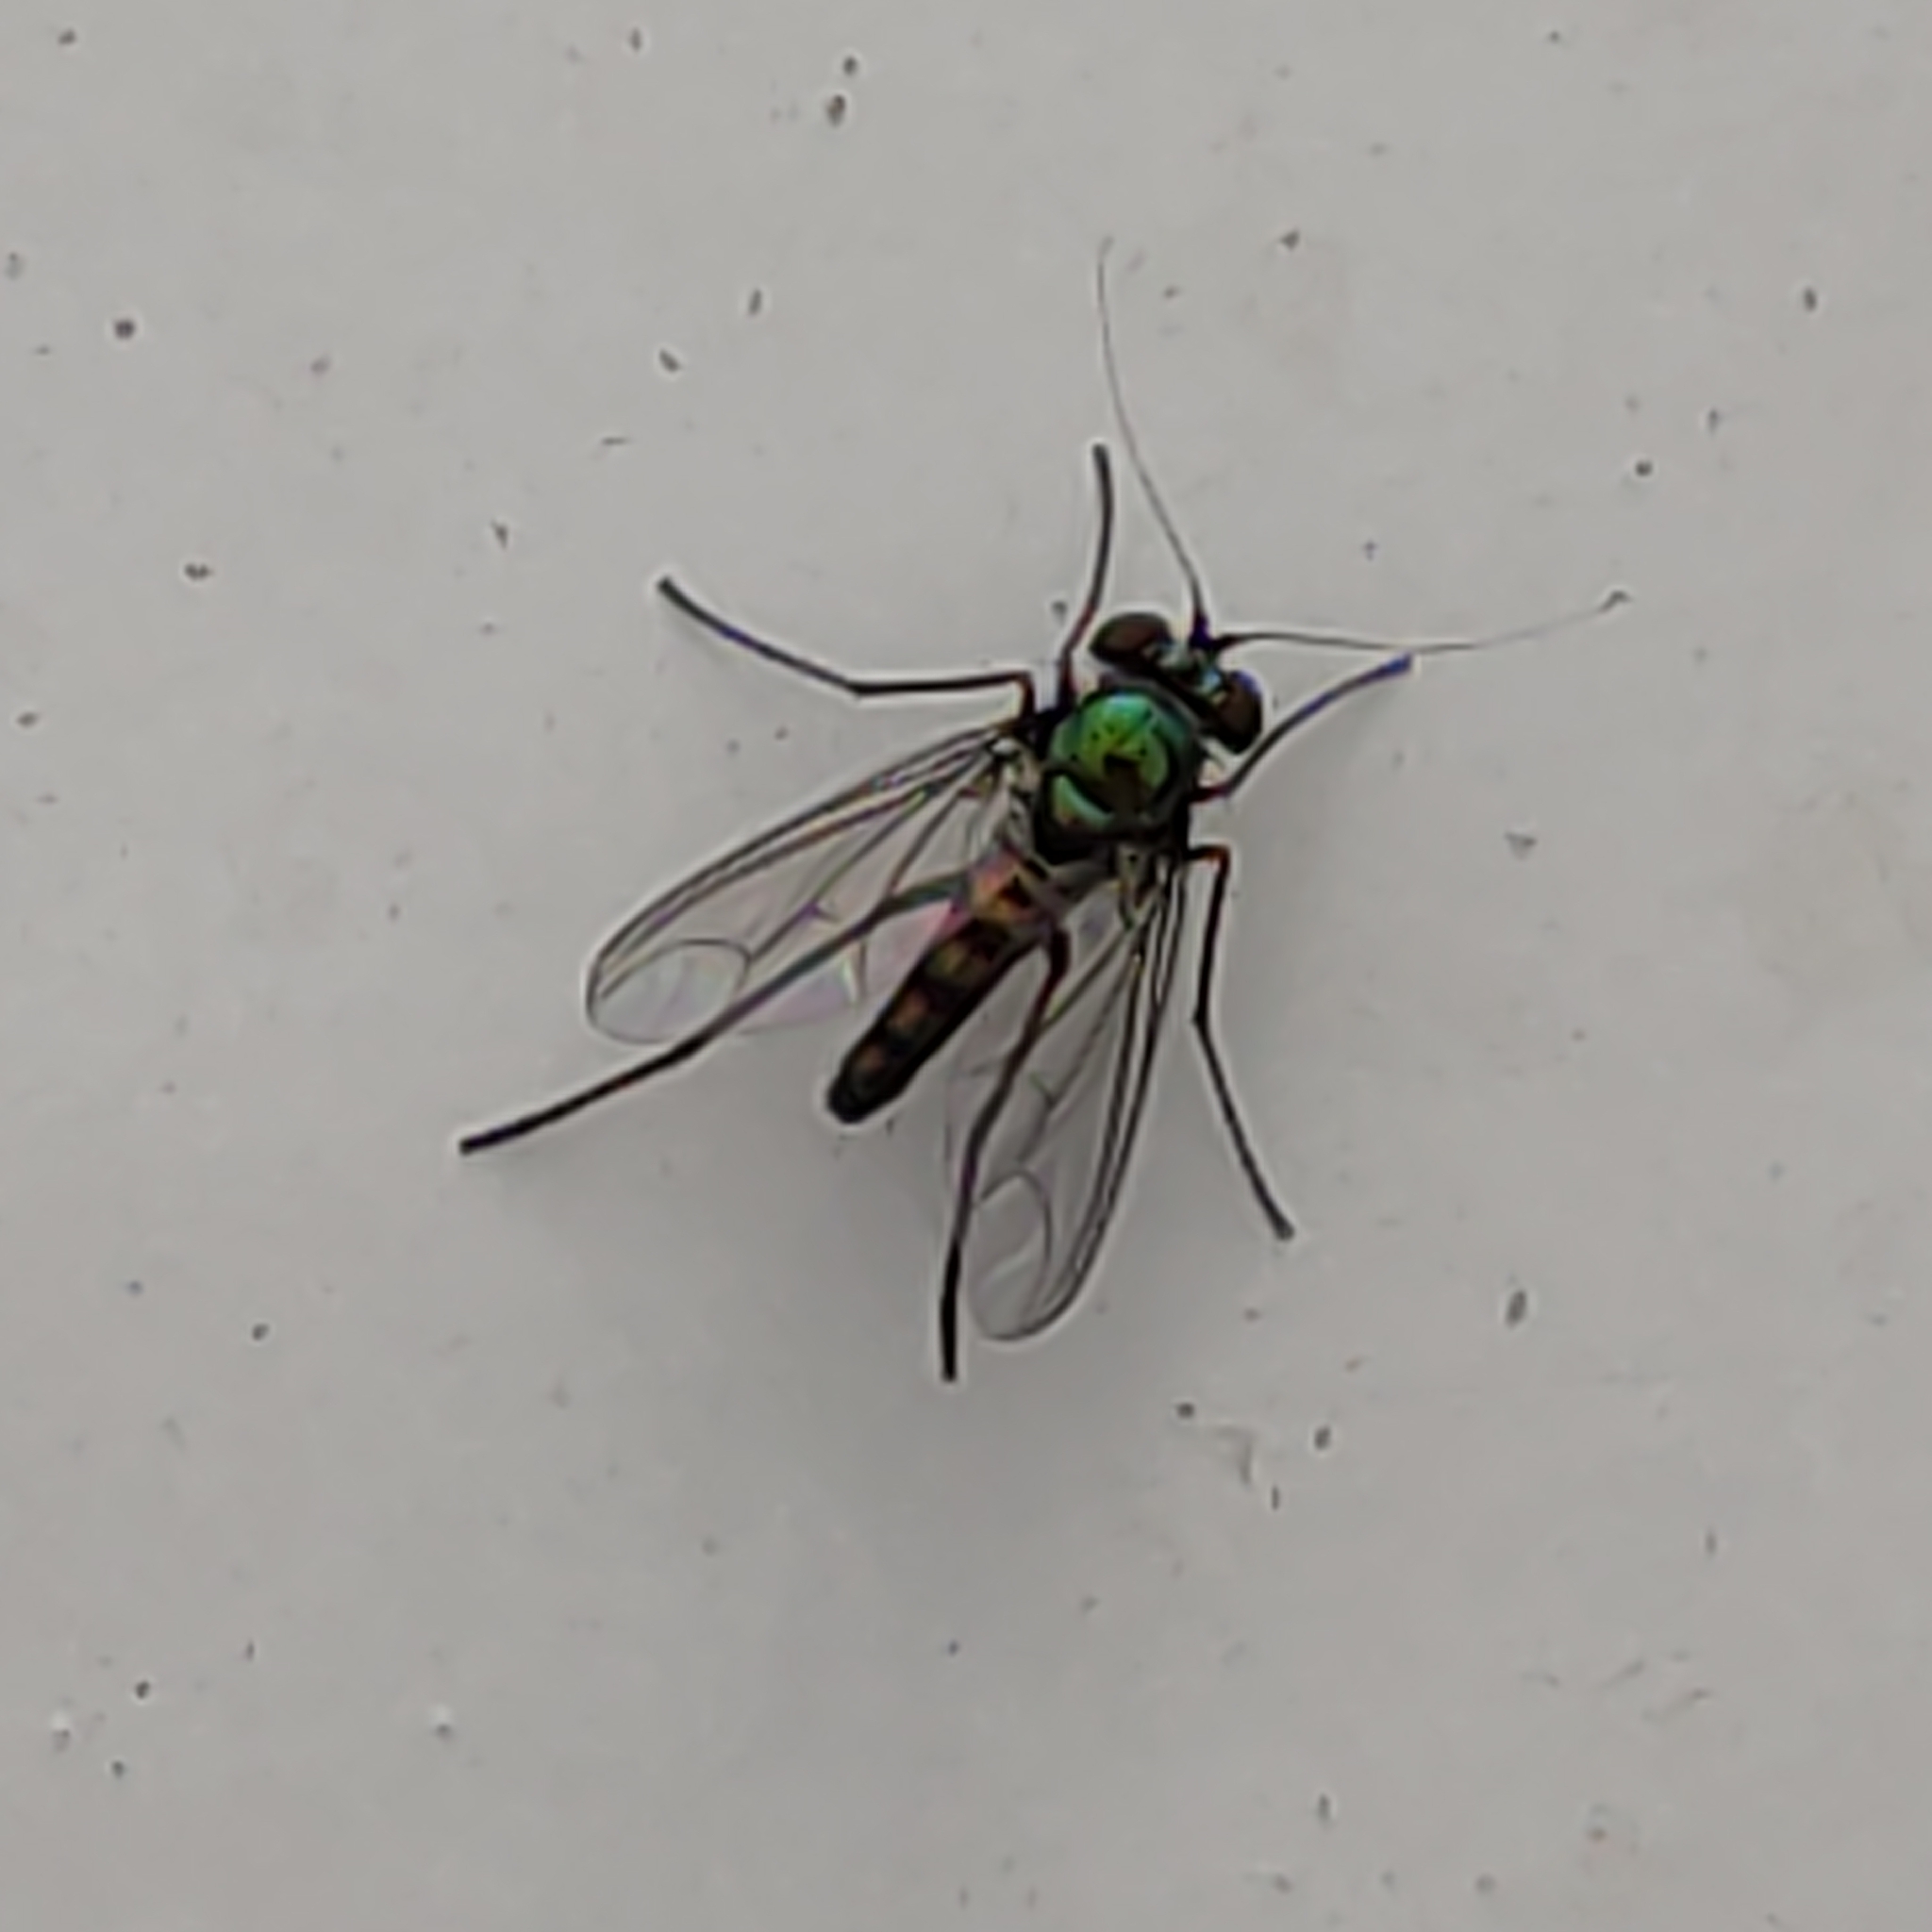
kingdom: Animalia
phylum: Arthropoda
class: Insecta
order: Diptera
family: Dolichopodidae
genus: Parentia
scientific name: Parentia mobile
